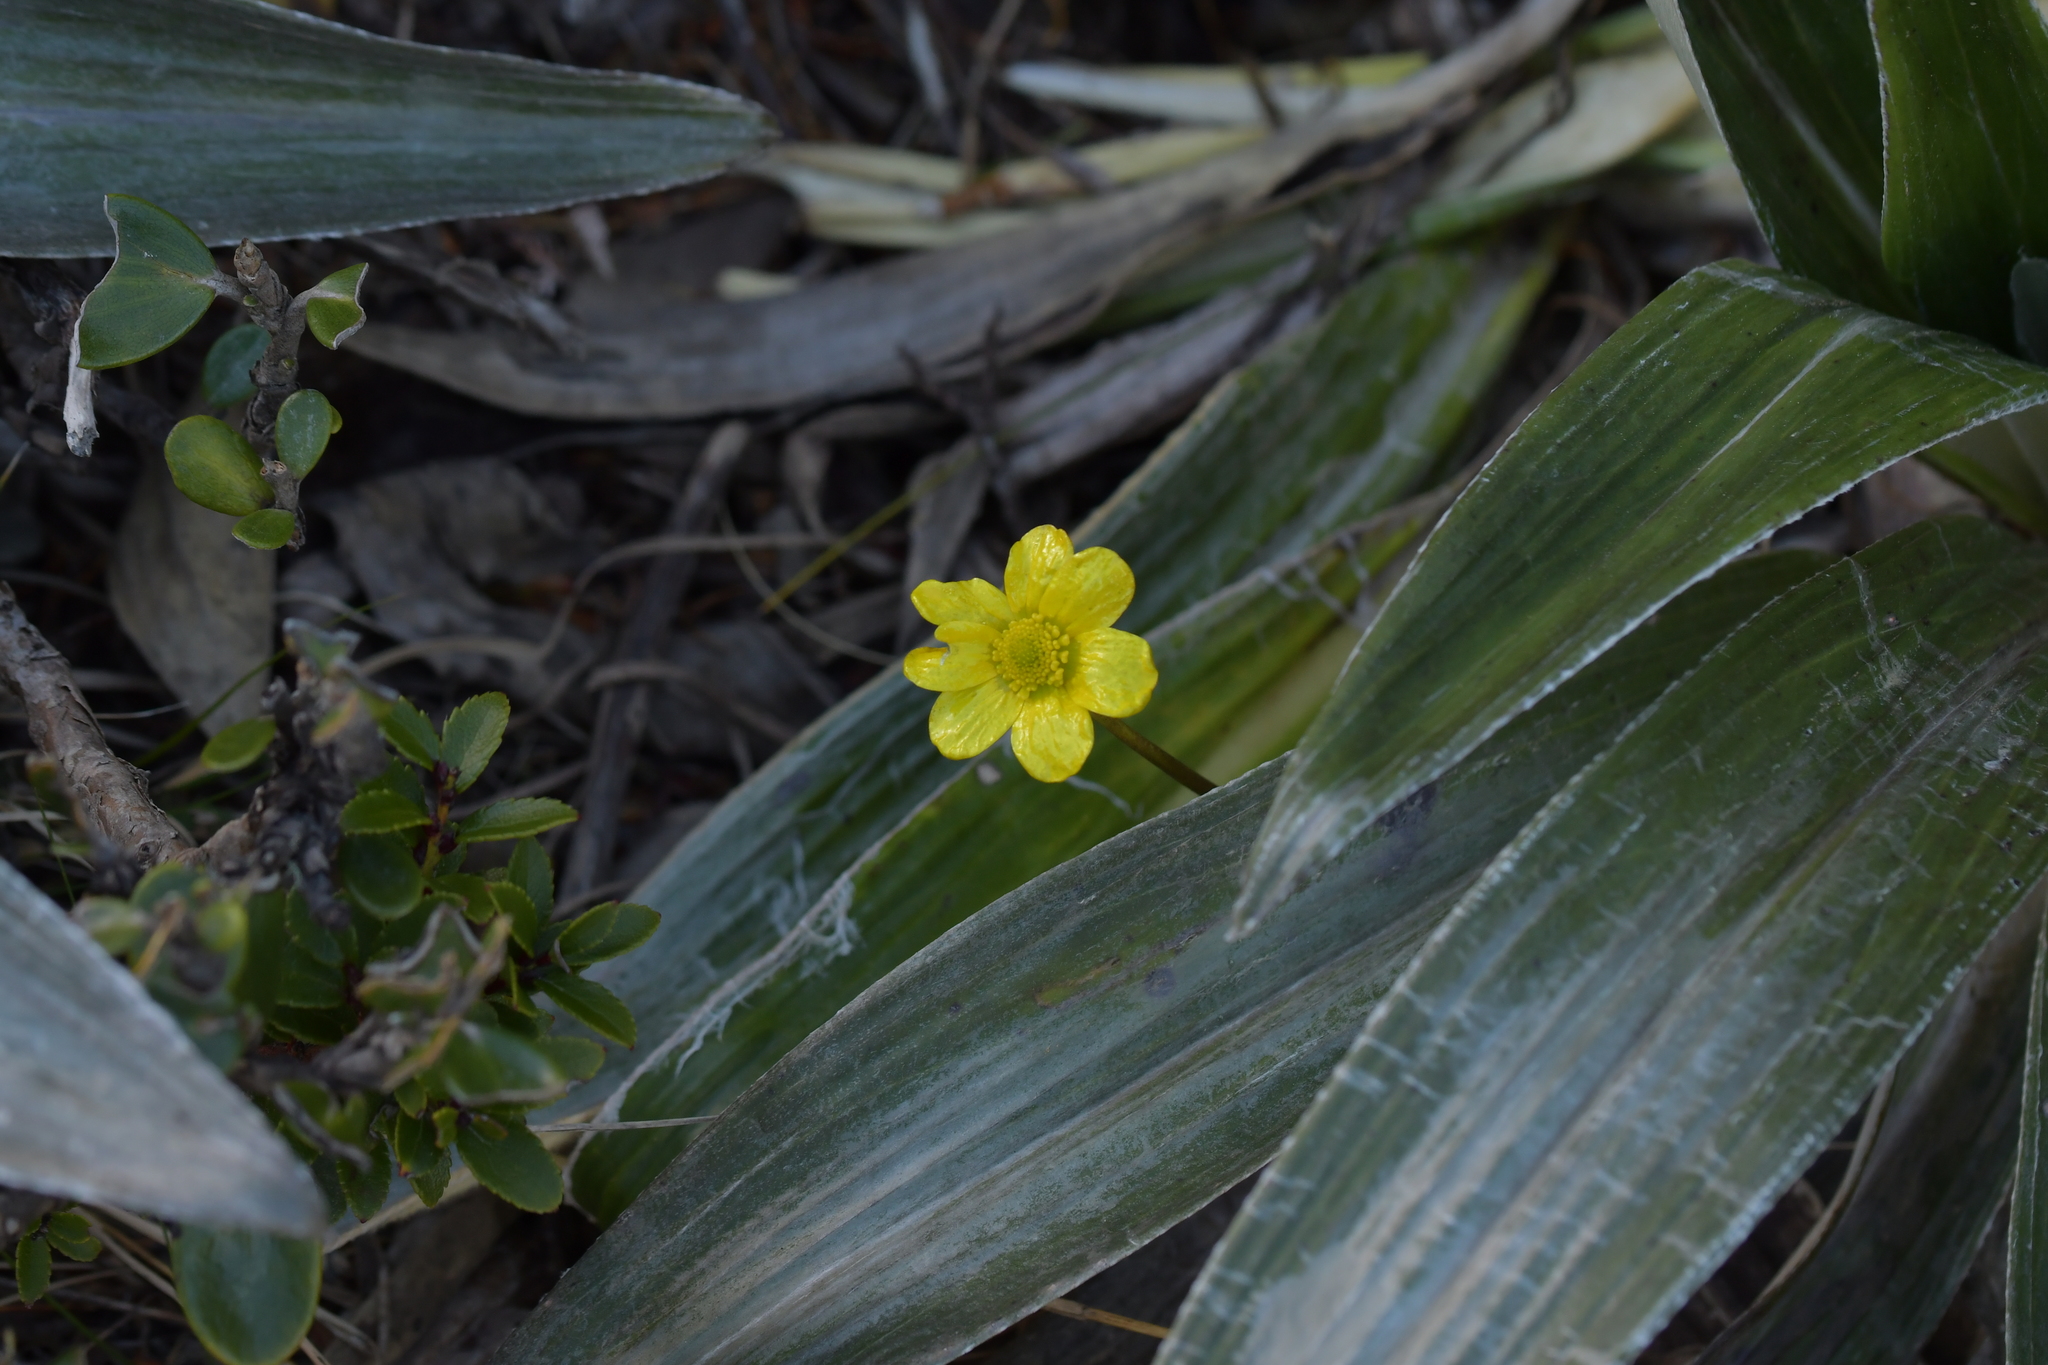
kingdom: Plantae
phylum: Tracheophyta
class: Magnoliopsida
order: Ranunculales
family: Ranunculaceae
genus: Ranunculus
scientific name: Ranunculus insignis
